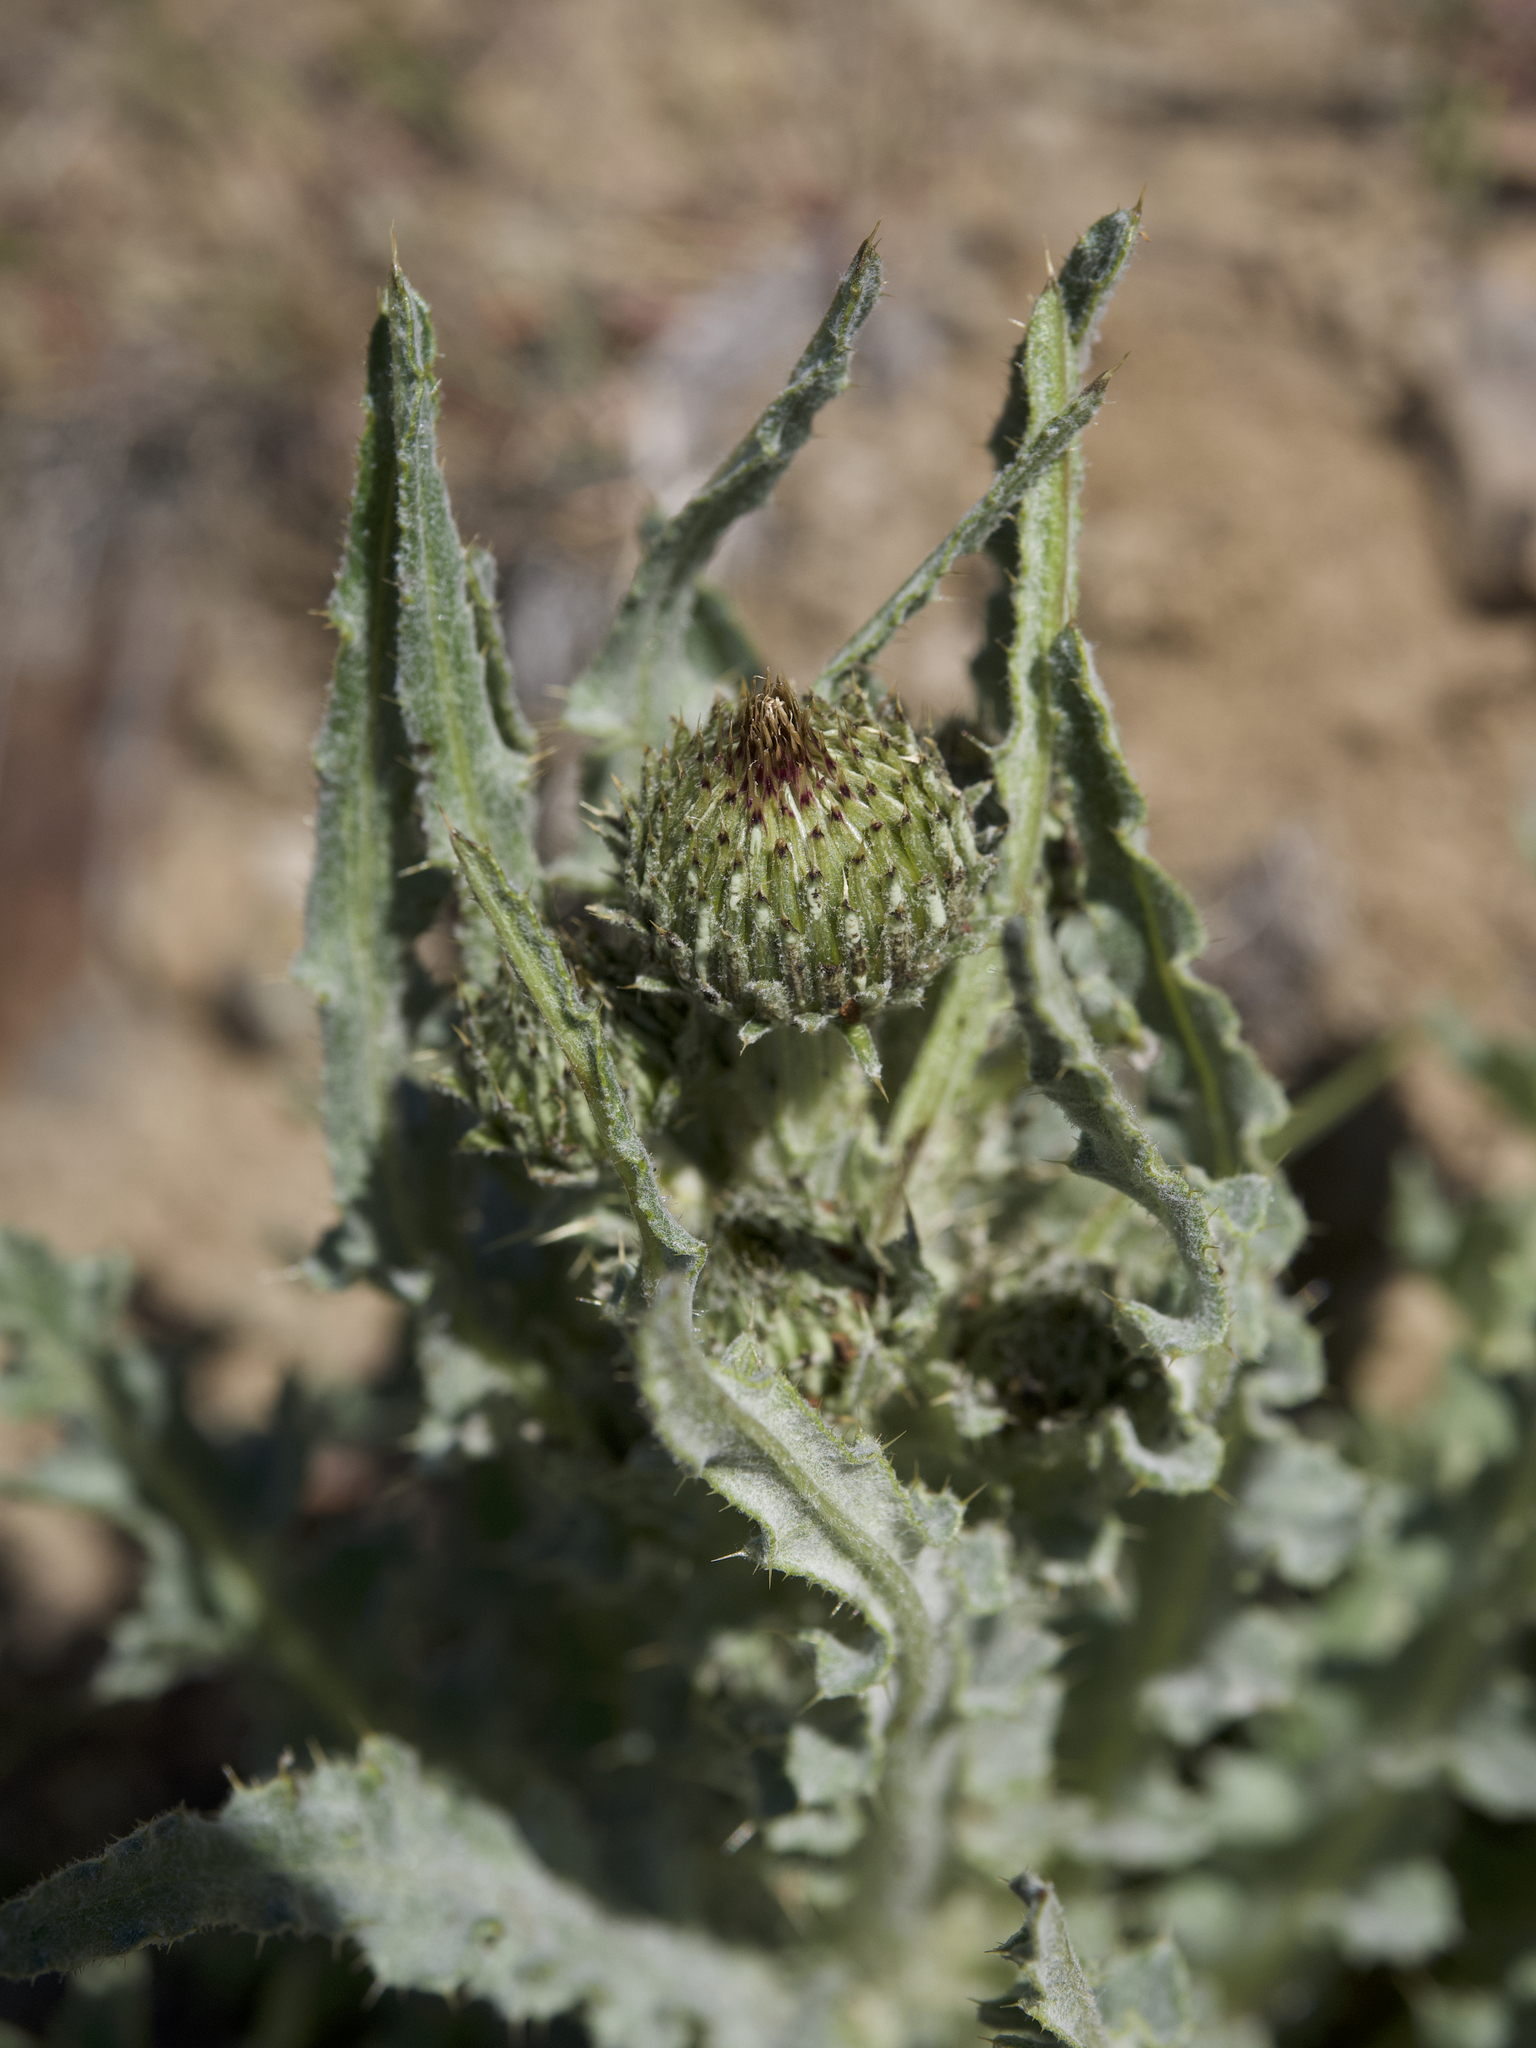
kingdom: Plantae
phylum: Tracheophyta
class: Magnoliopsida
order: Asterales
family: Asteraceae
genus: Cirsium
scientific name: Cirsium cymosum
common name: Peregrine thistle
